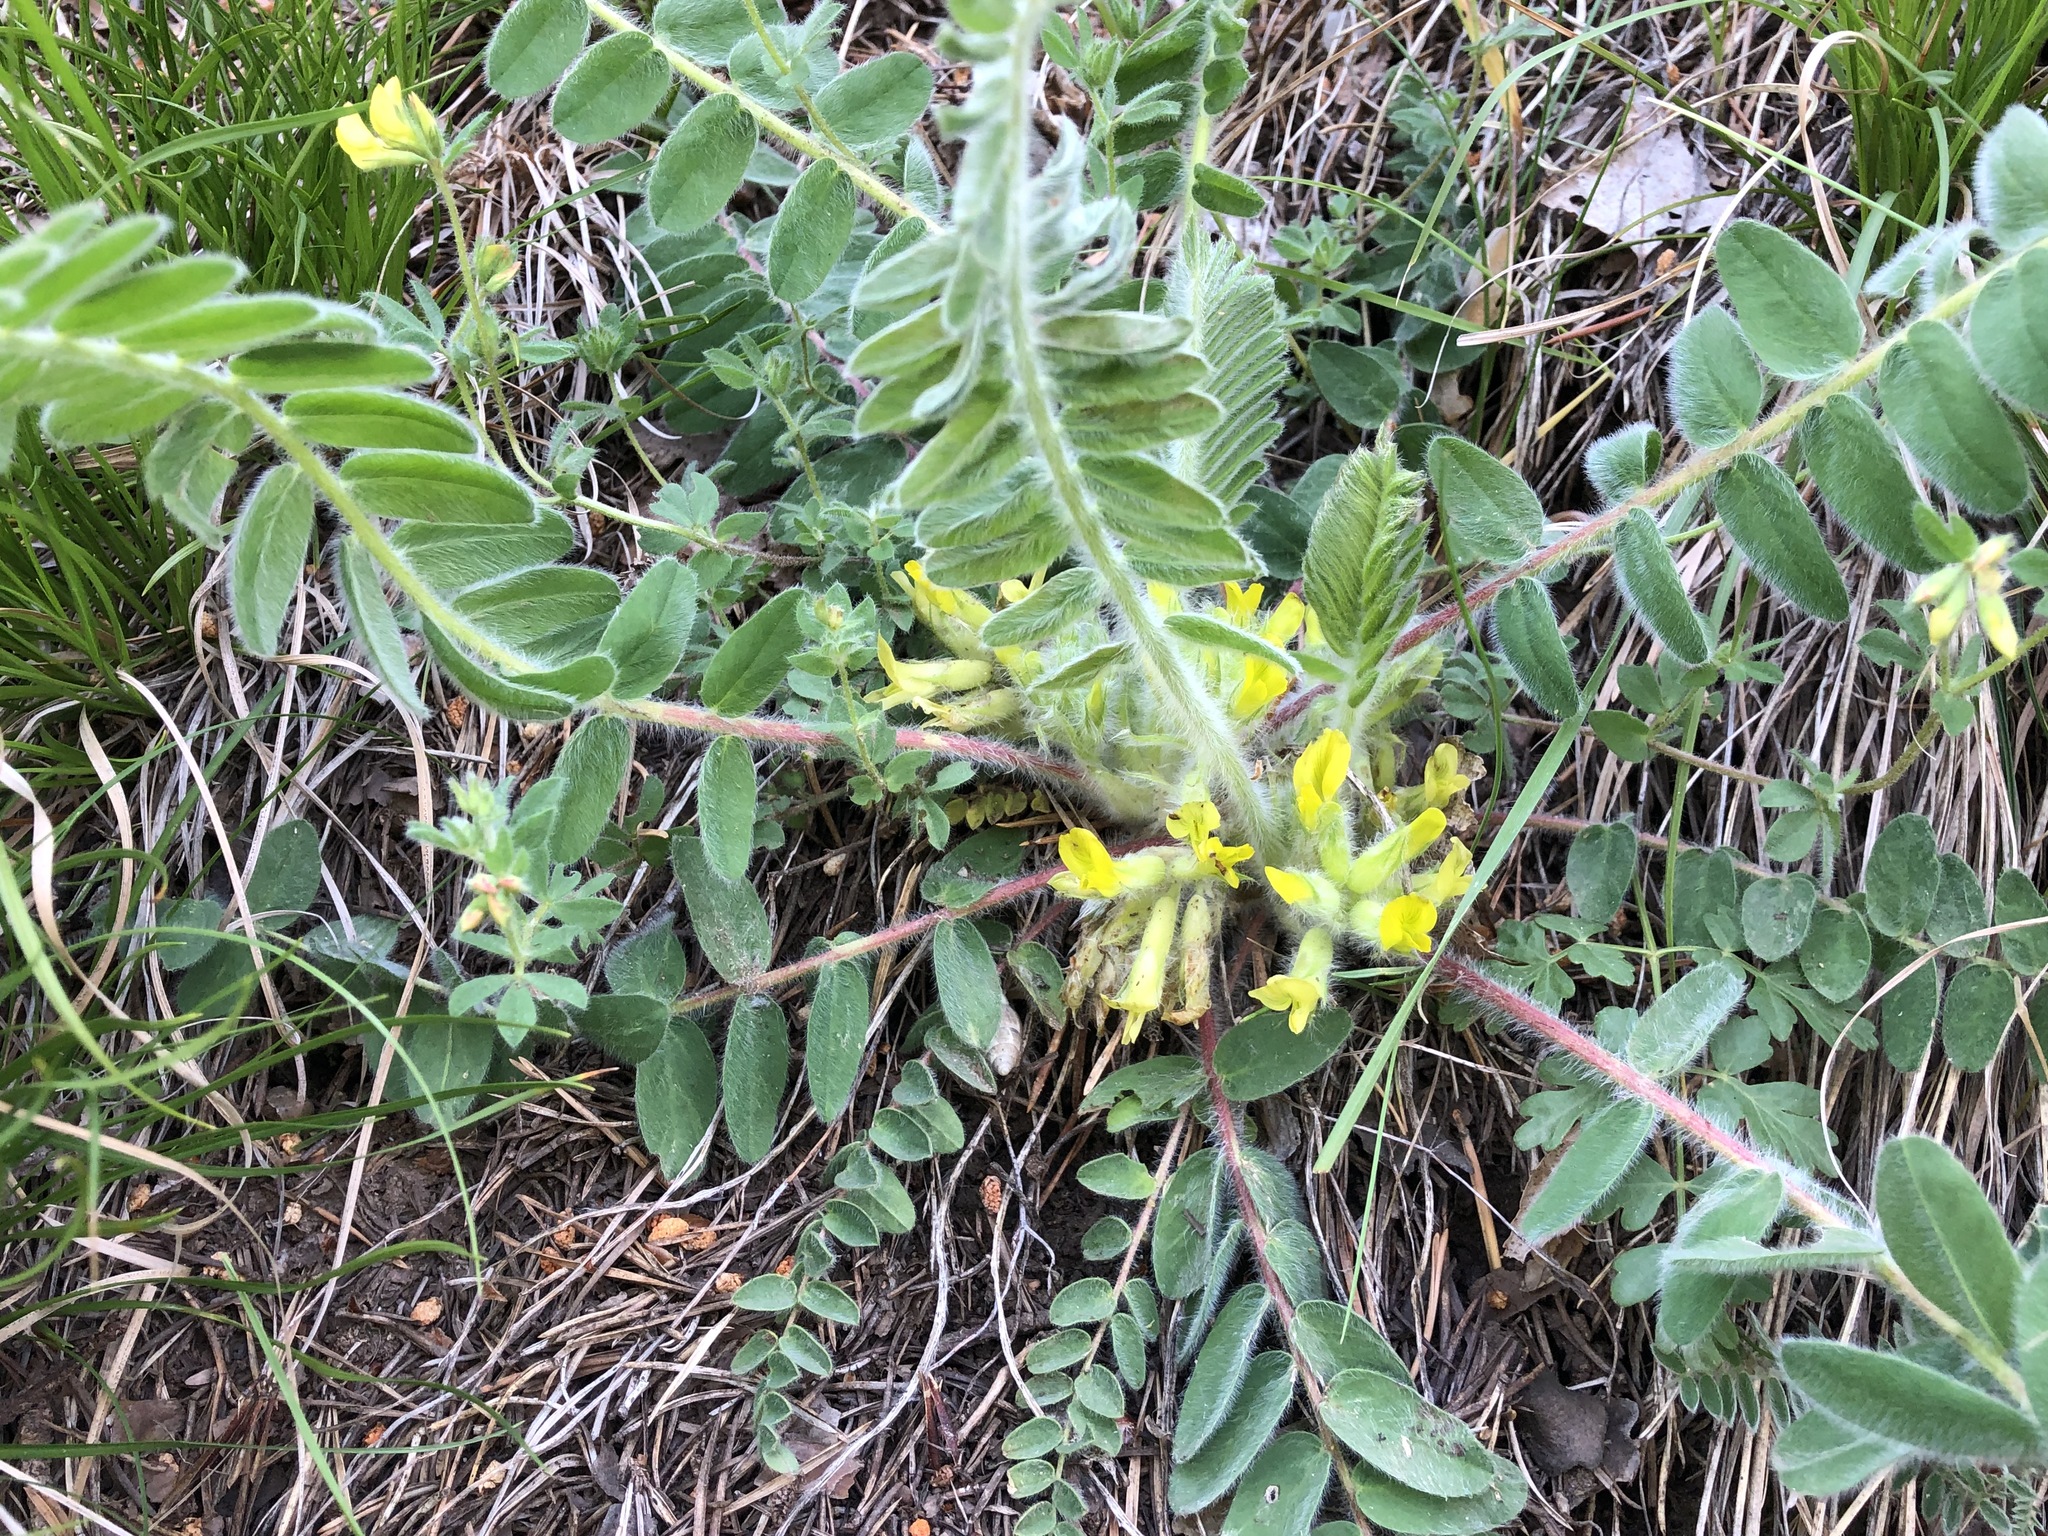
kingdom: Plantae
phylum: Tracheophyta
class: Magnoliopsida
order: Fabales
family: Fabaceae
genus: Astragalus
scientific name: Astragalus exscapus
